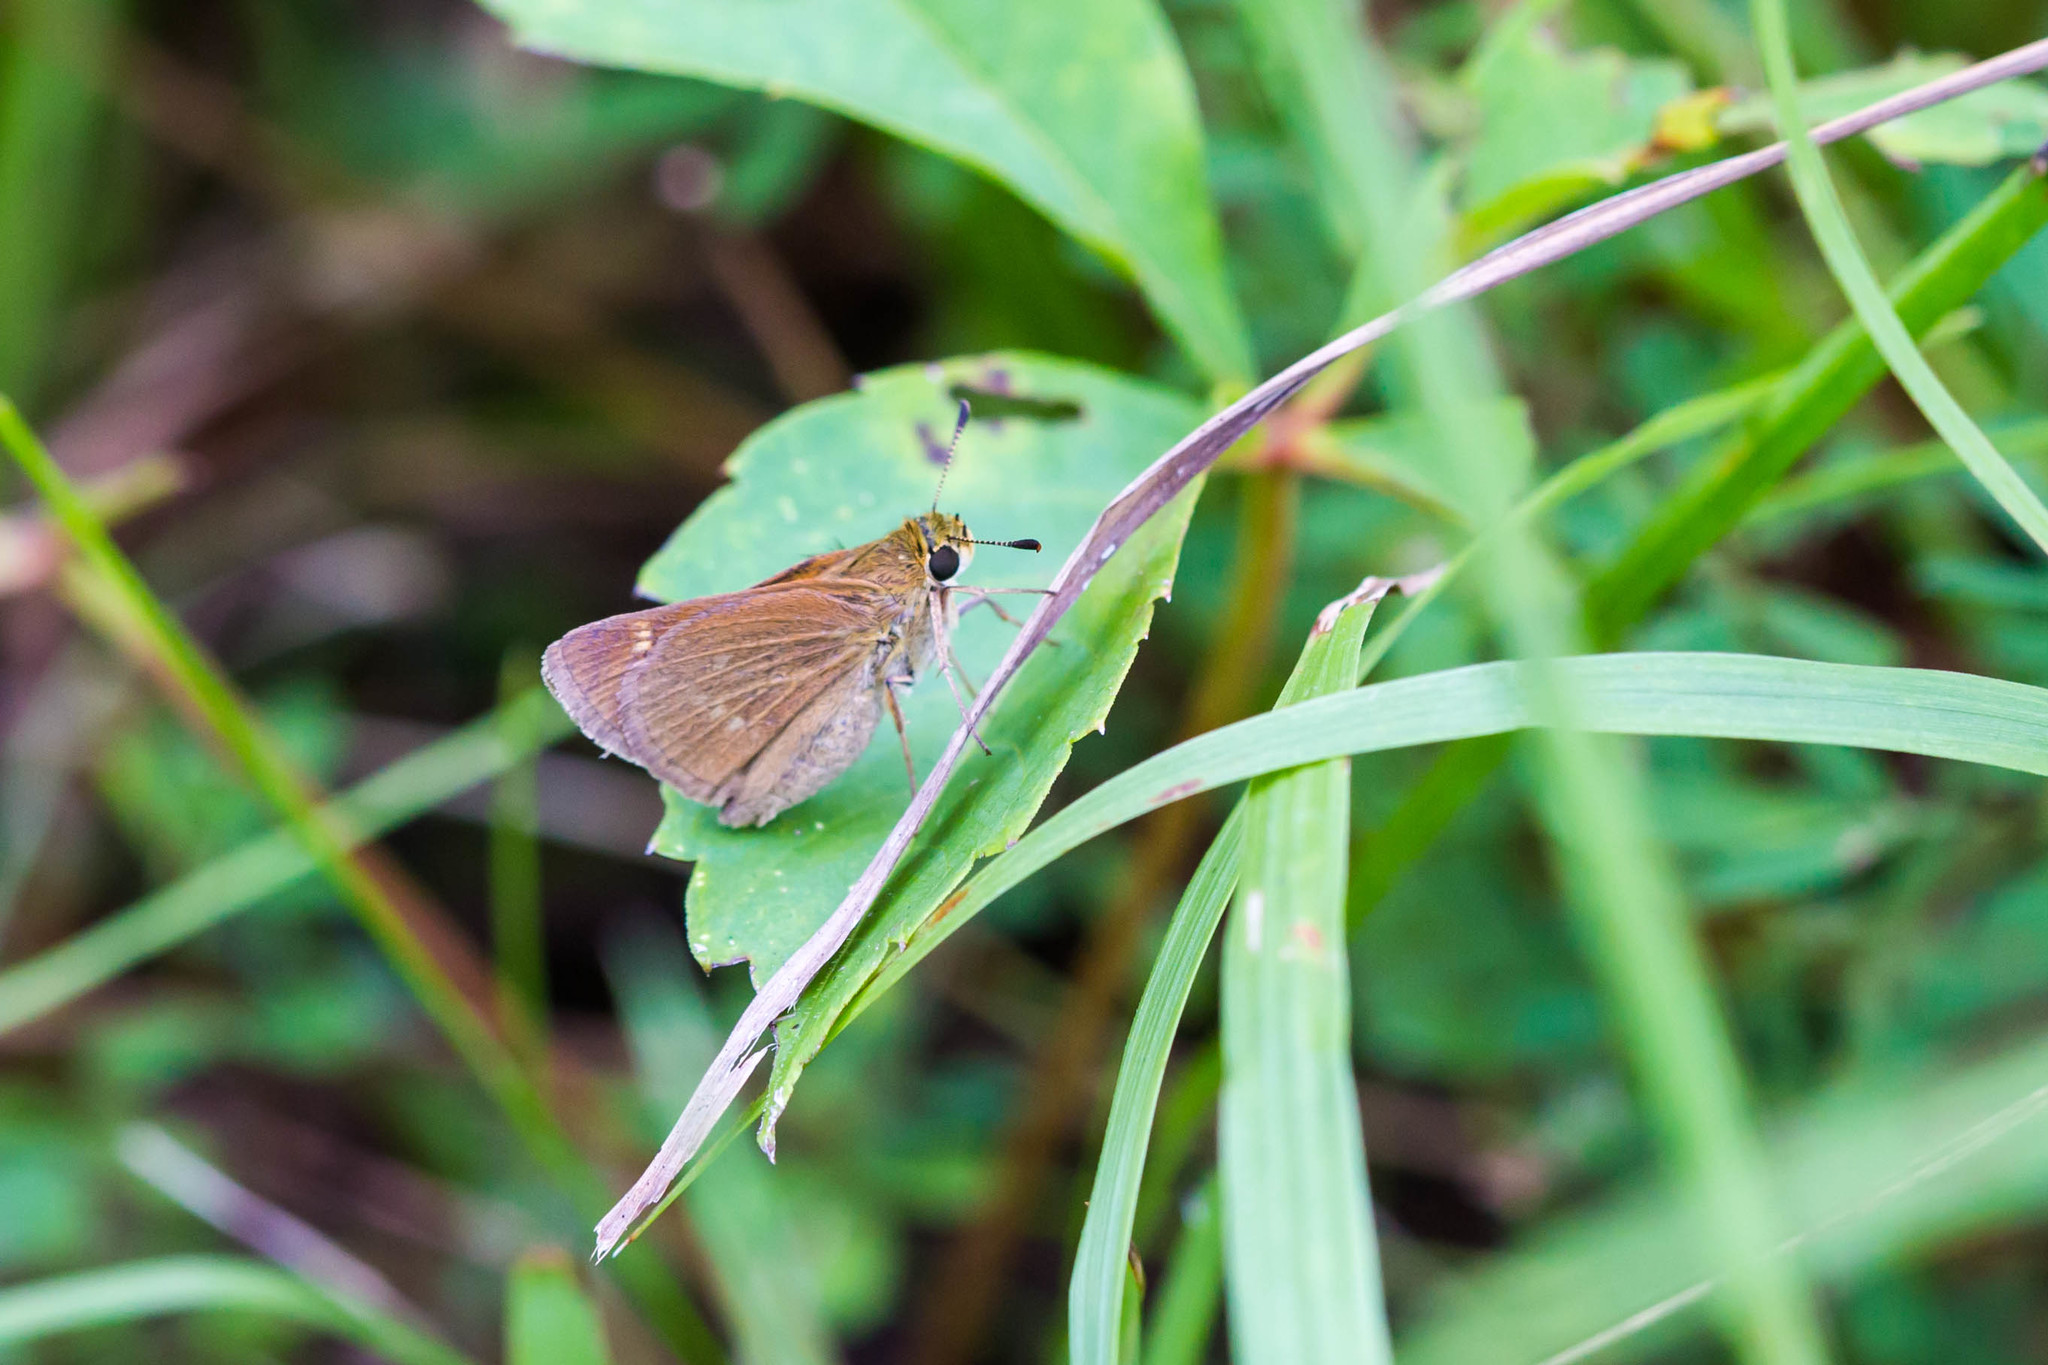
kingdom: Animalia
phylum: Arthropoda
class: Insecta
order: Lepidoptera
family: Hesperiidae
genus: Polites
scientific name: Polites origenes
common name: Crossline skipper
